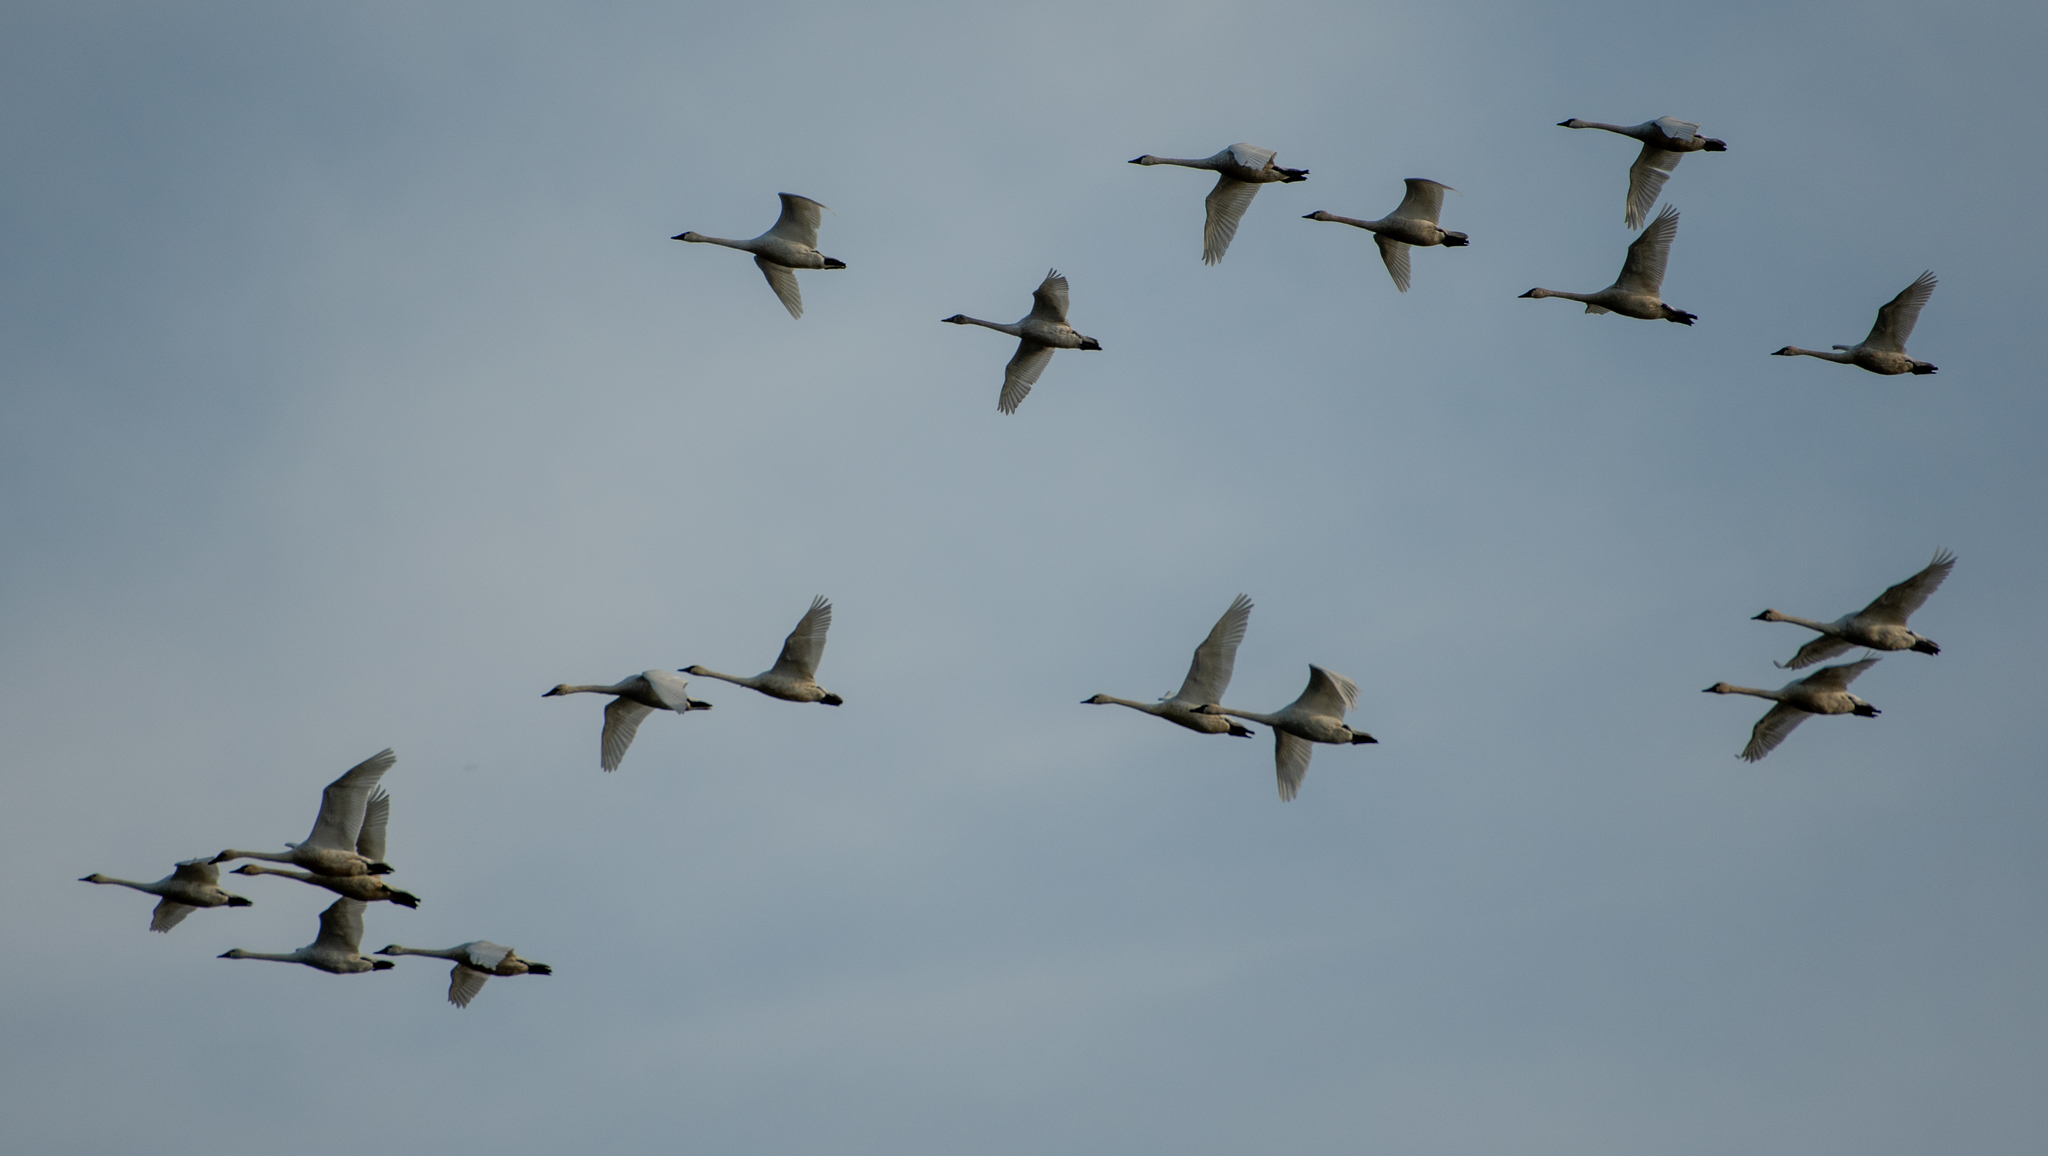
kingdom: Animalia
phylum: Chordata
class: Aves
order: Anseriformes
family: Anatidae
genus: Cygnus
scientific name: Cygnus columbianus
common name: Tundra swan
